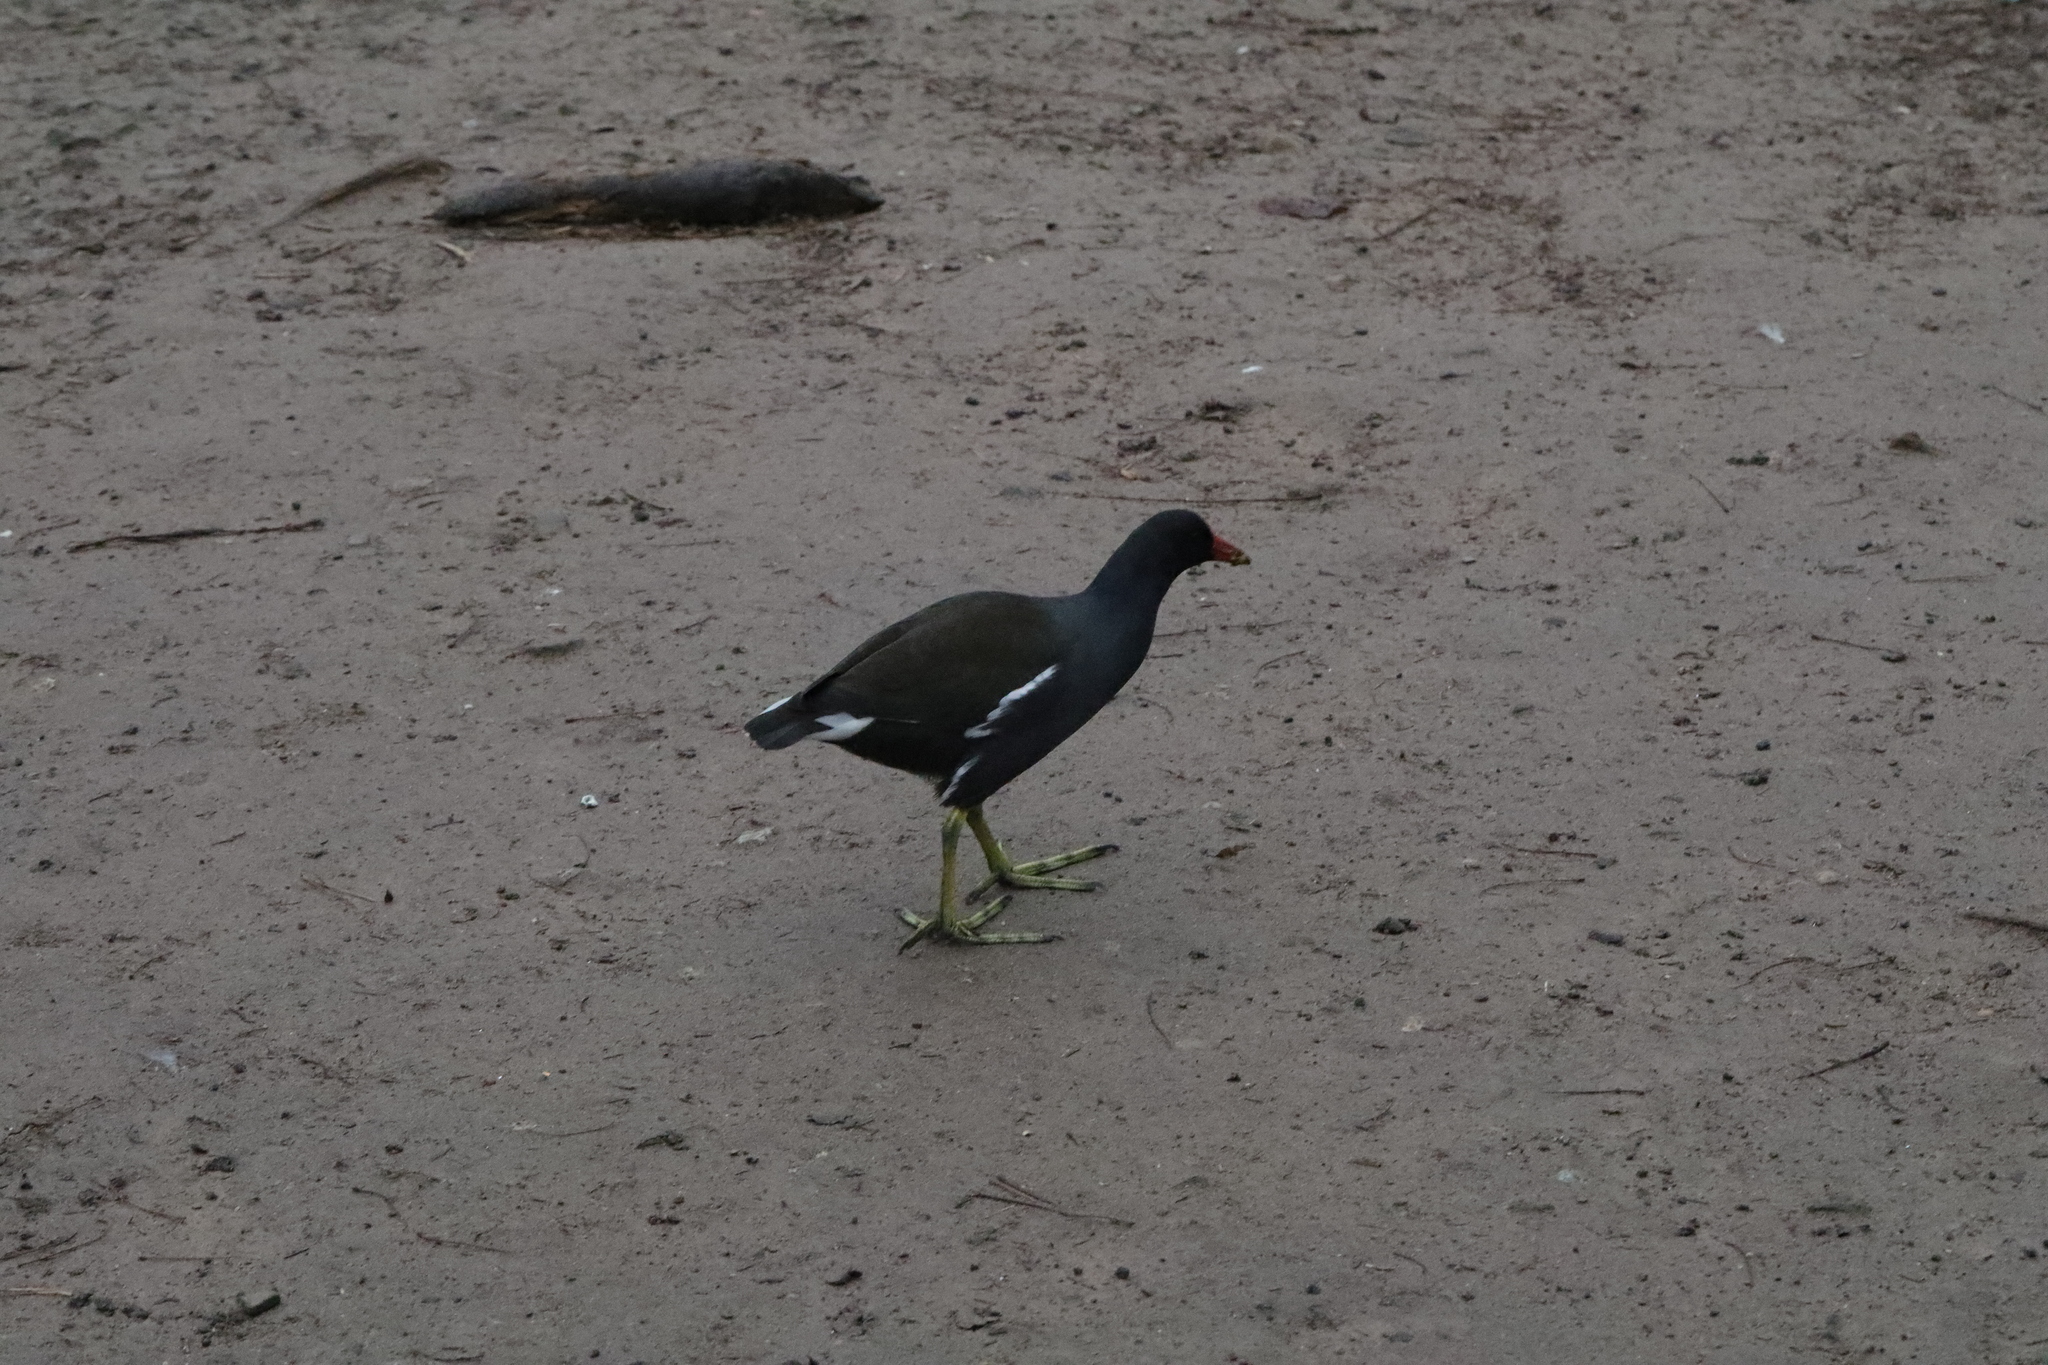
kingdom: Animalia
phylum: Chordata
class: Aves
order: Gruiformes
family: Rallidae
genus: Gallinula
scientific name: Gallinula chloropus
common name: Common moorhen
